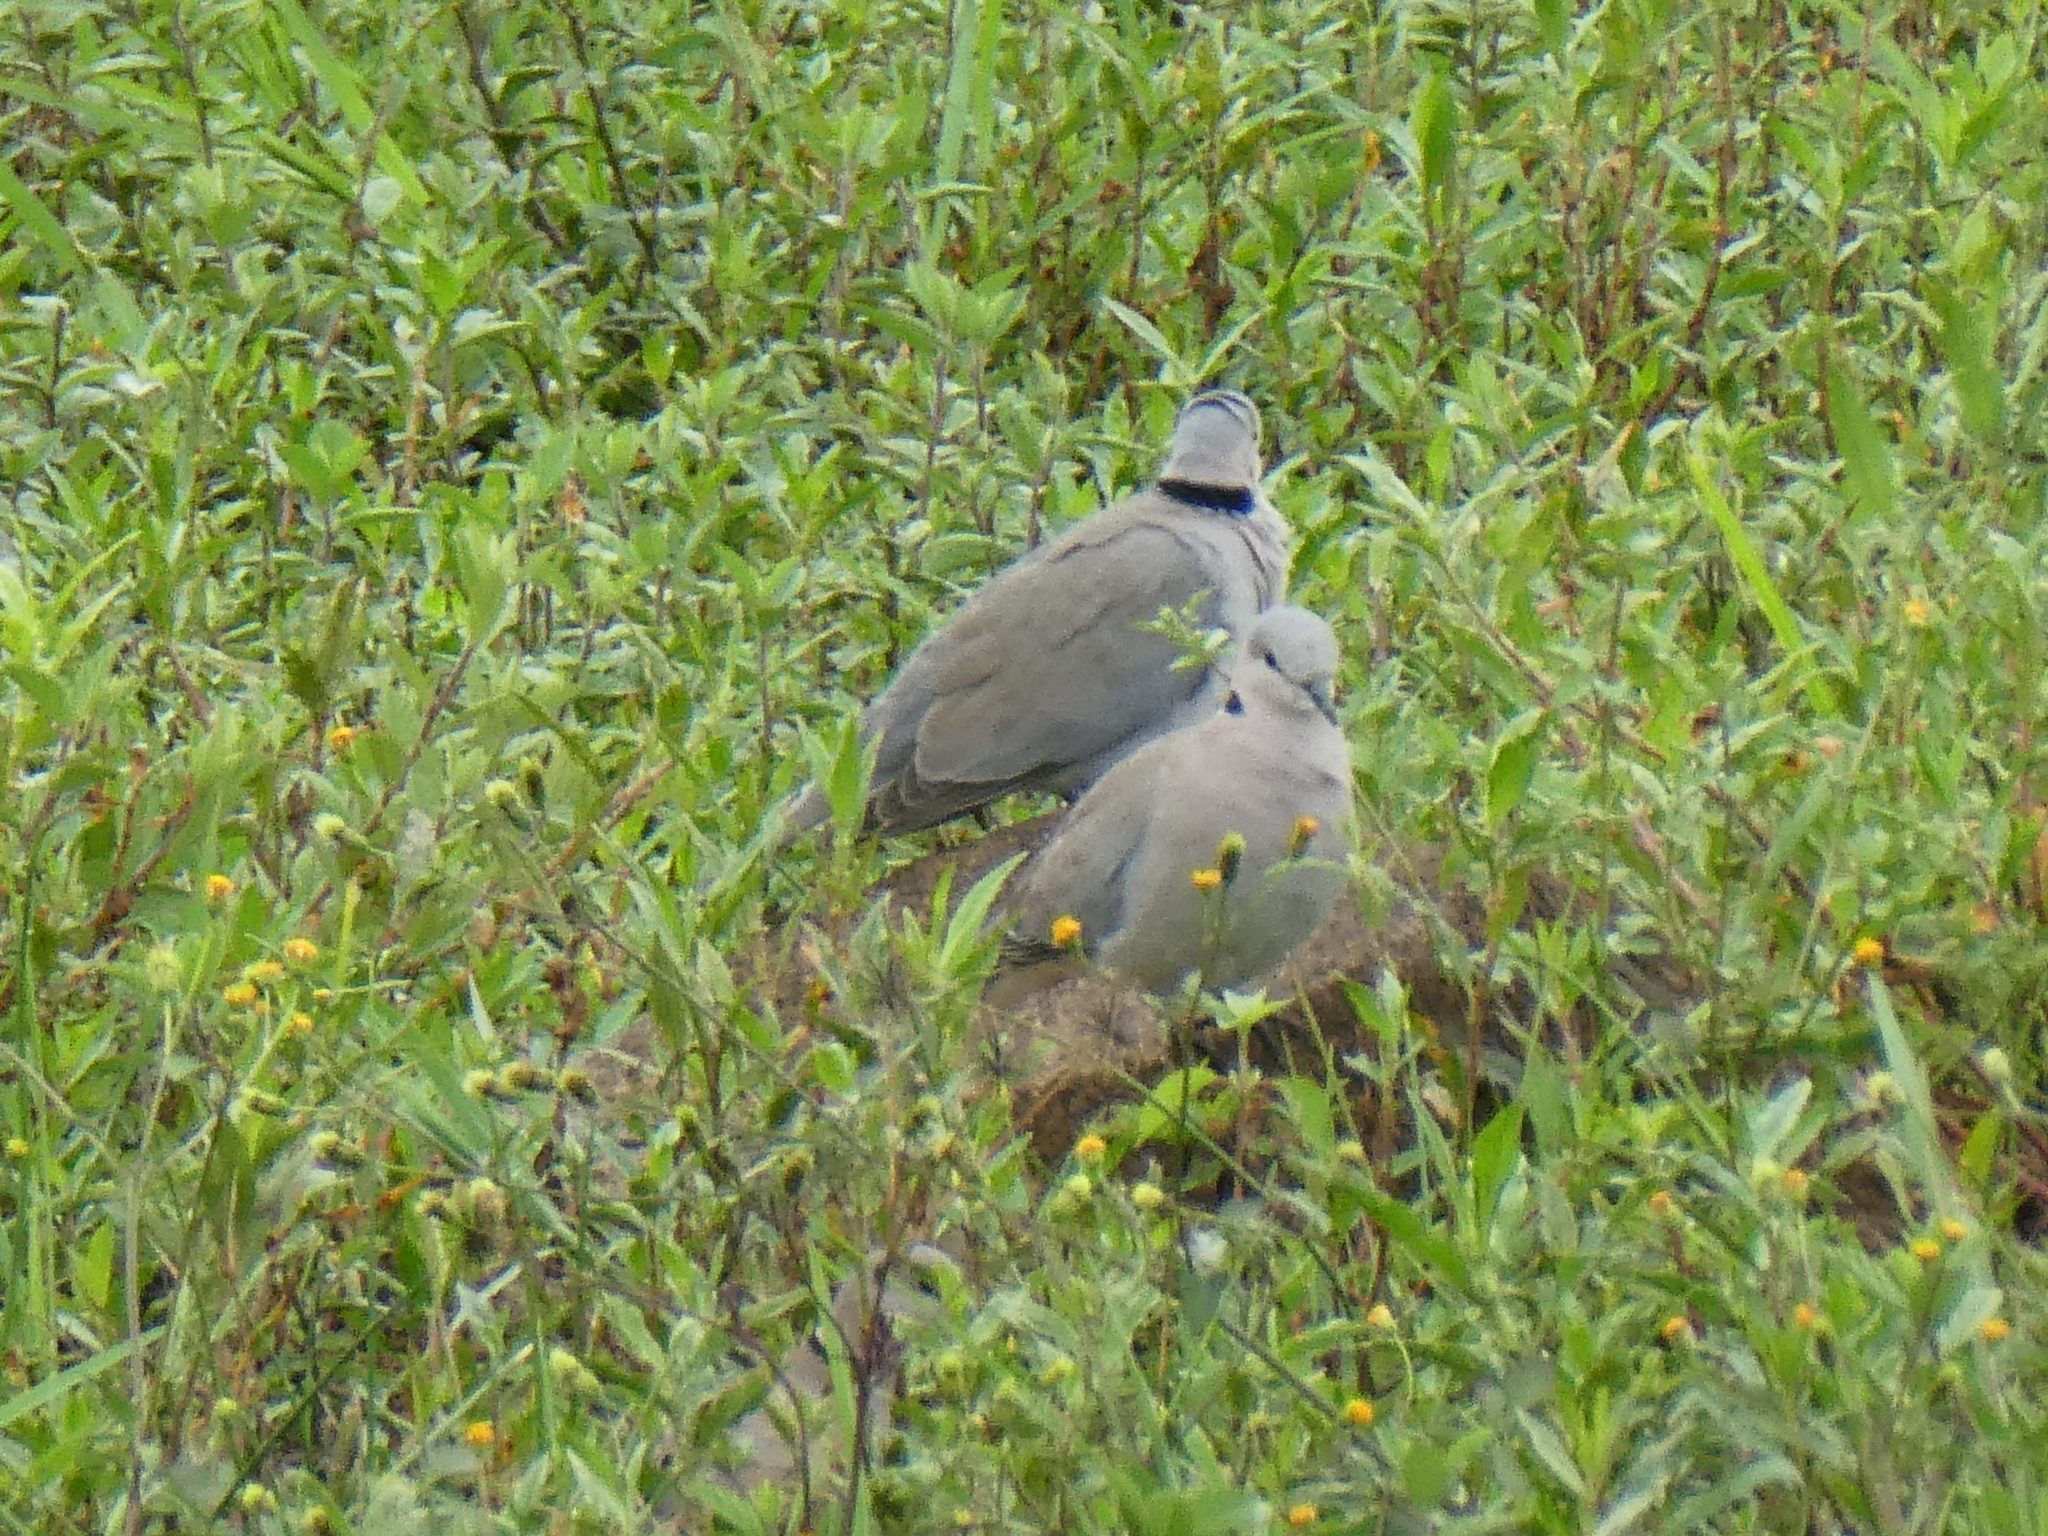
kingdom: Animalia
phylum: Chordata
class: Aves
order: Columbiformes
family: Columbidae
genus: Streptopelia
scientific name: Streptopelia capicola
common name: Ring-necked dove
